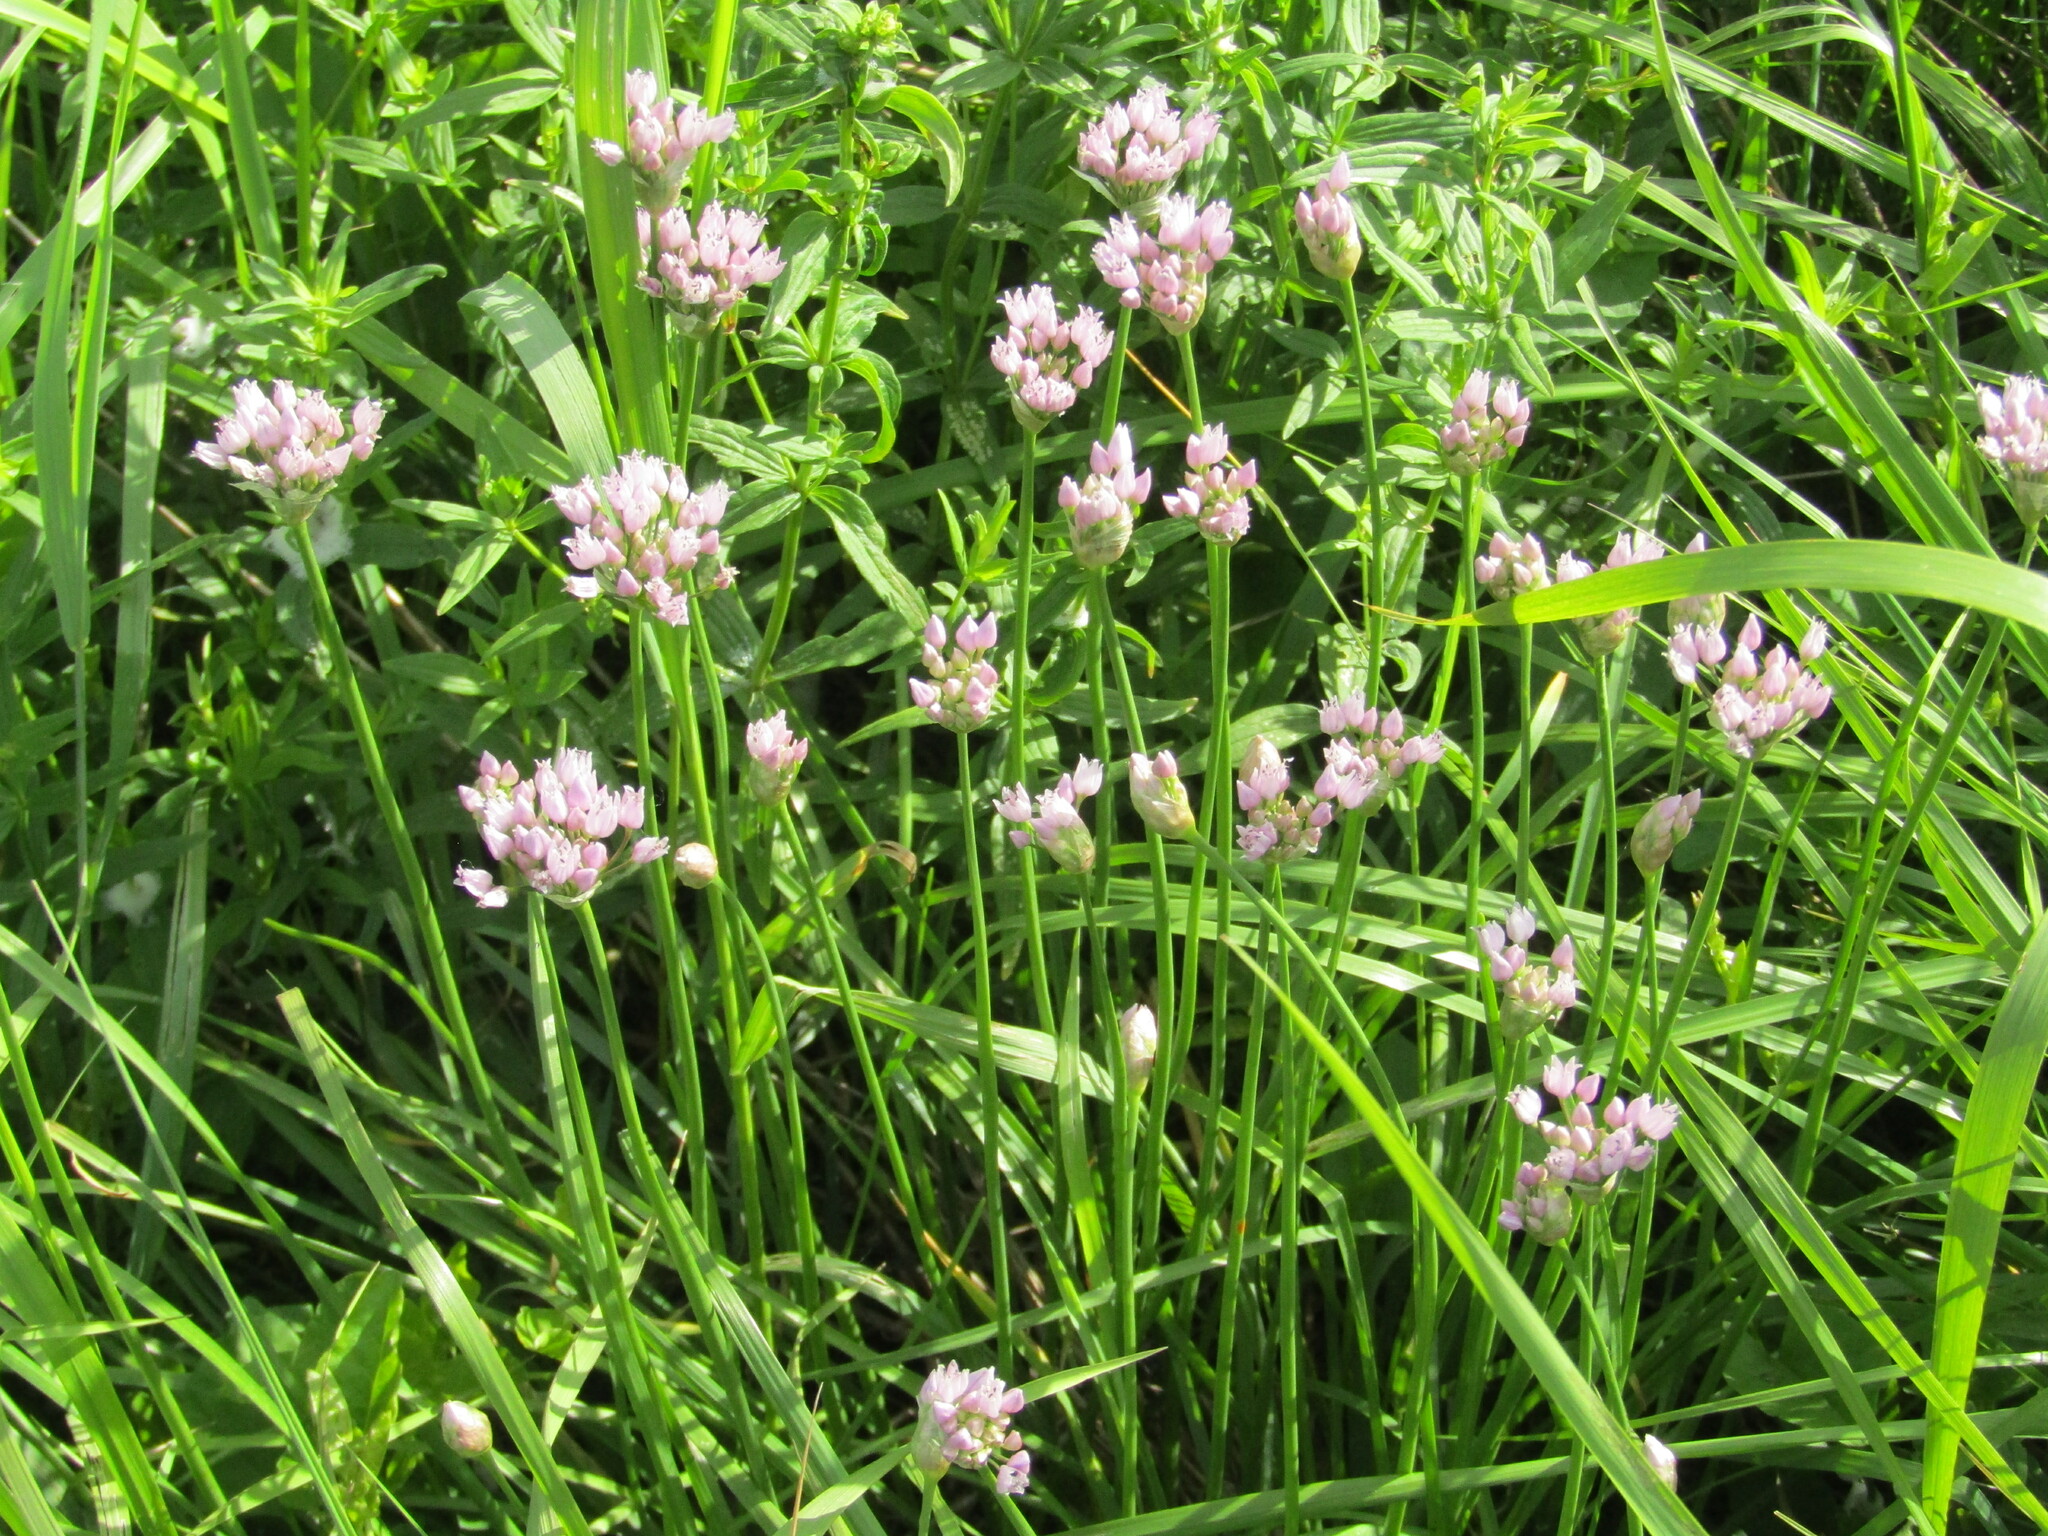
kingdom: Plantae
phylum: Tracheophyta
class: Liliopsida
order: Asparagales
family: Amaryllidaceae
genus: Allium
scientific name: Allium angulosum
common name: Mouse garlic
